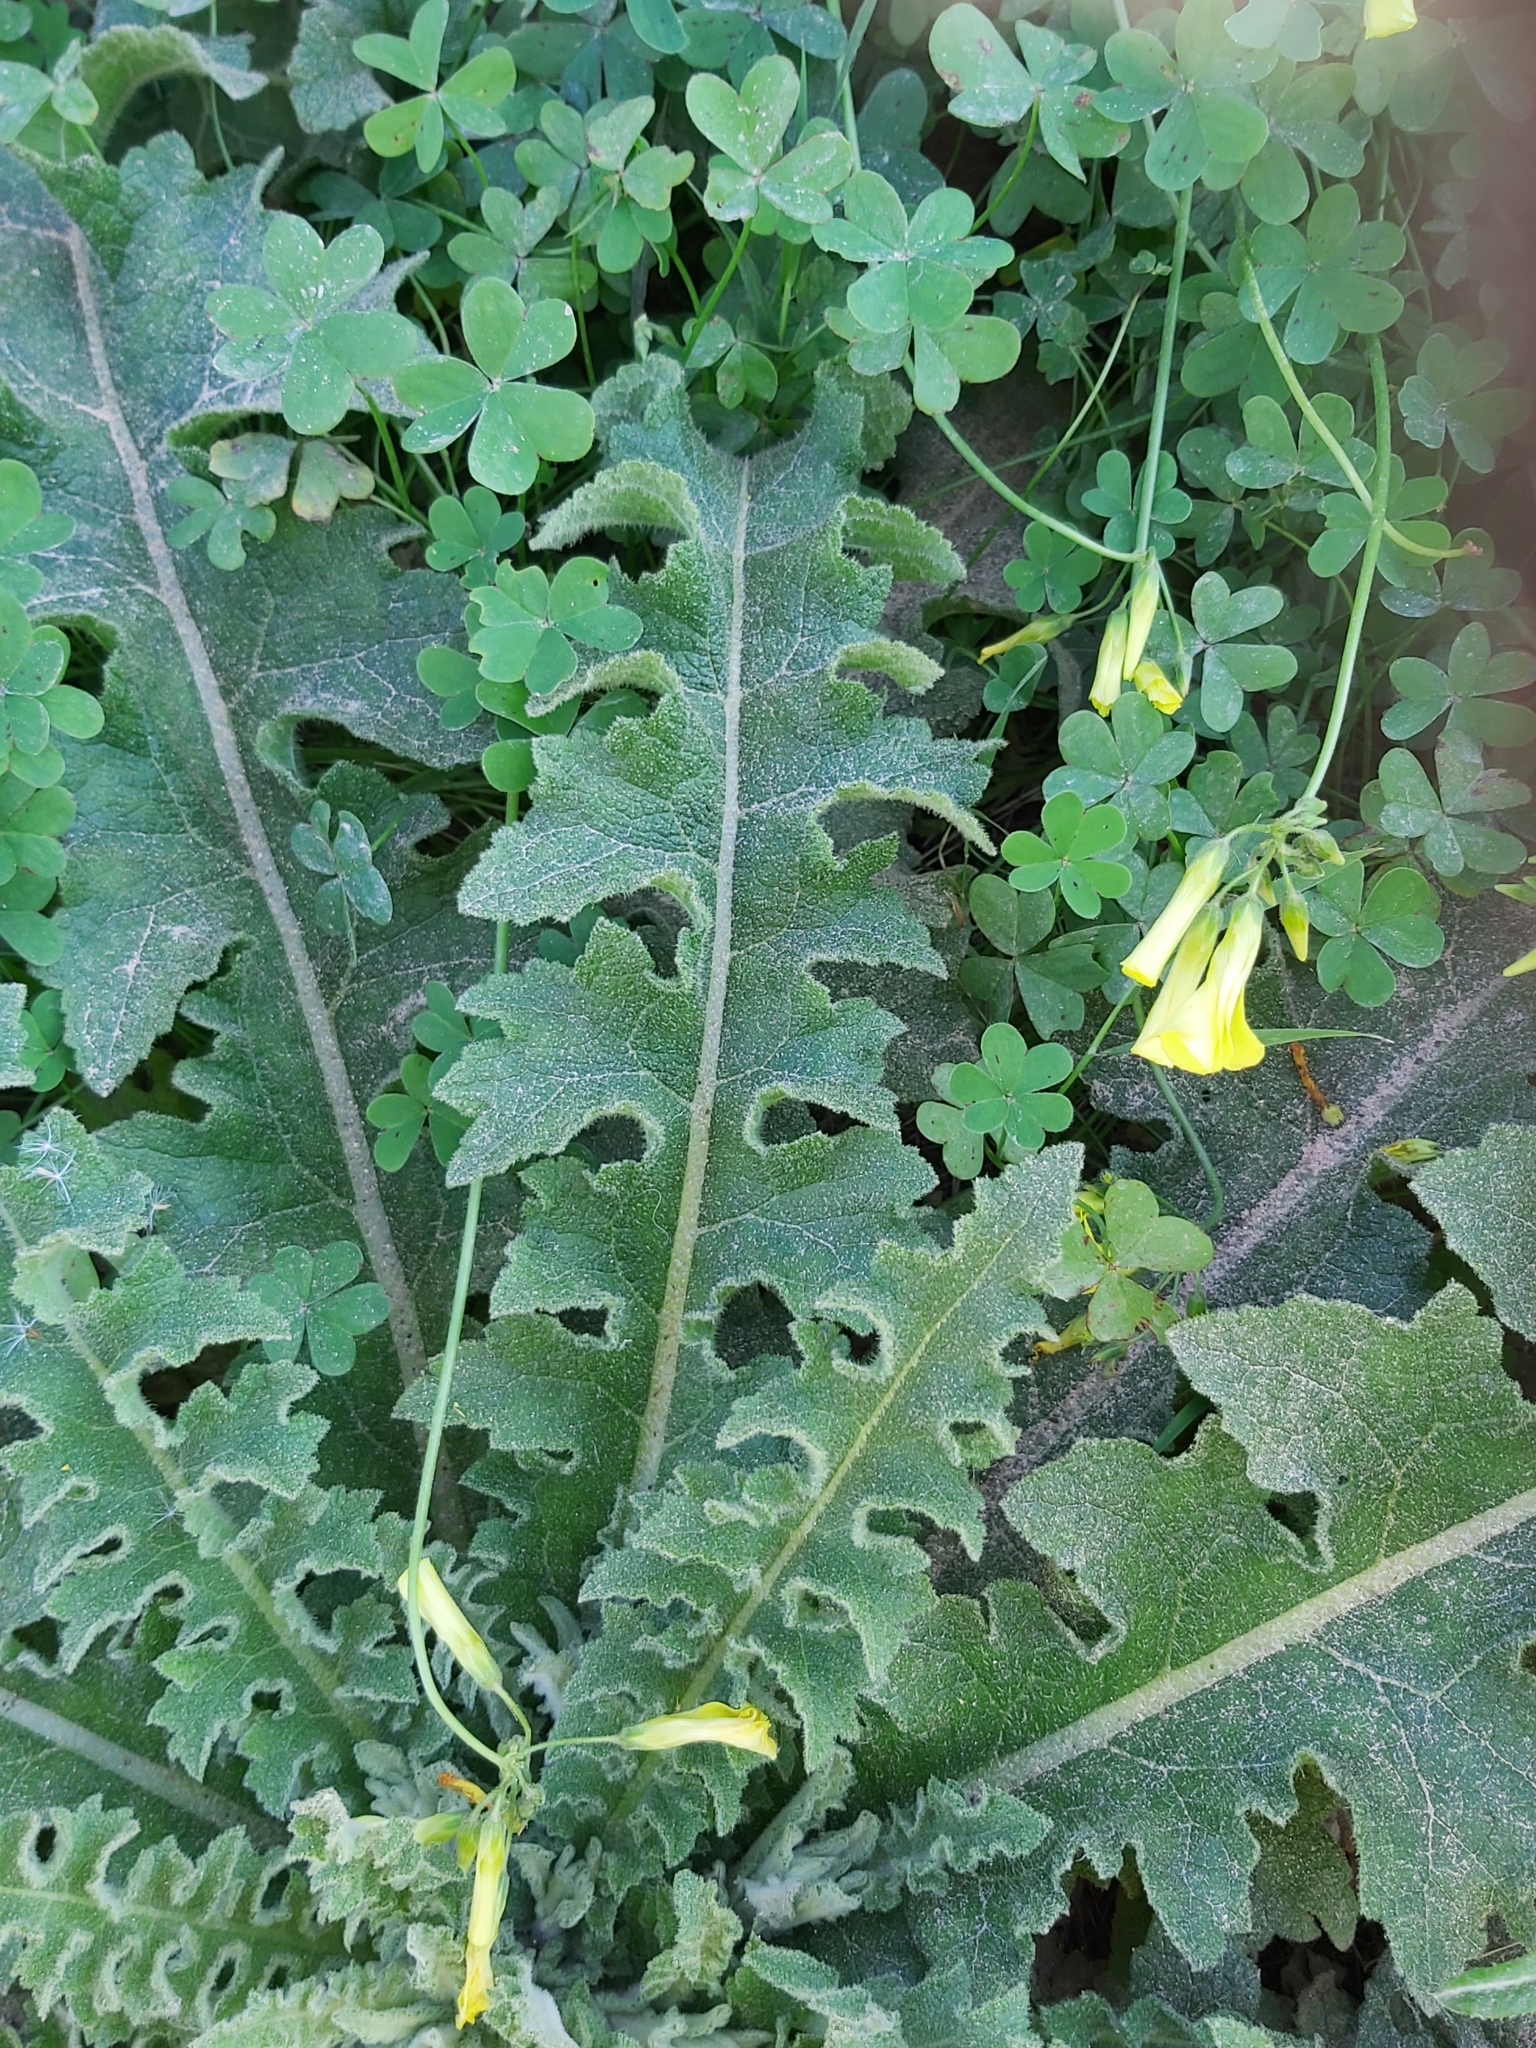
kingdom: Plantae
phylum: Tracheophyta
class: Magnoliopsida
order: Lamiales
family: Scrophulariaceae
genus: Verbascum
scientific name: Verbascum sinuatum
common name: Wavyleaf mullein
